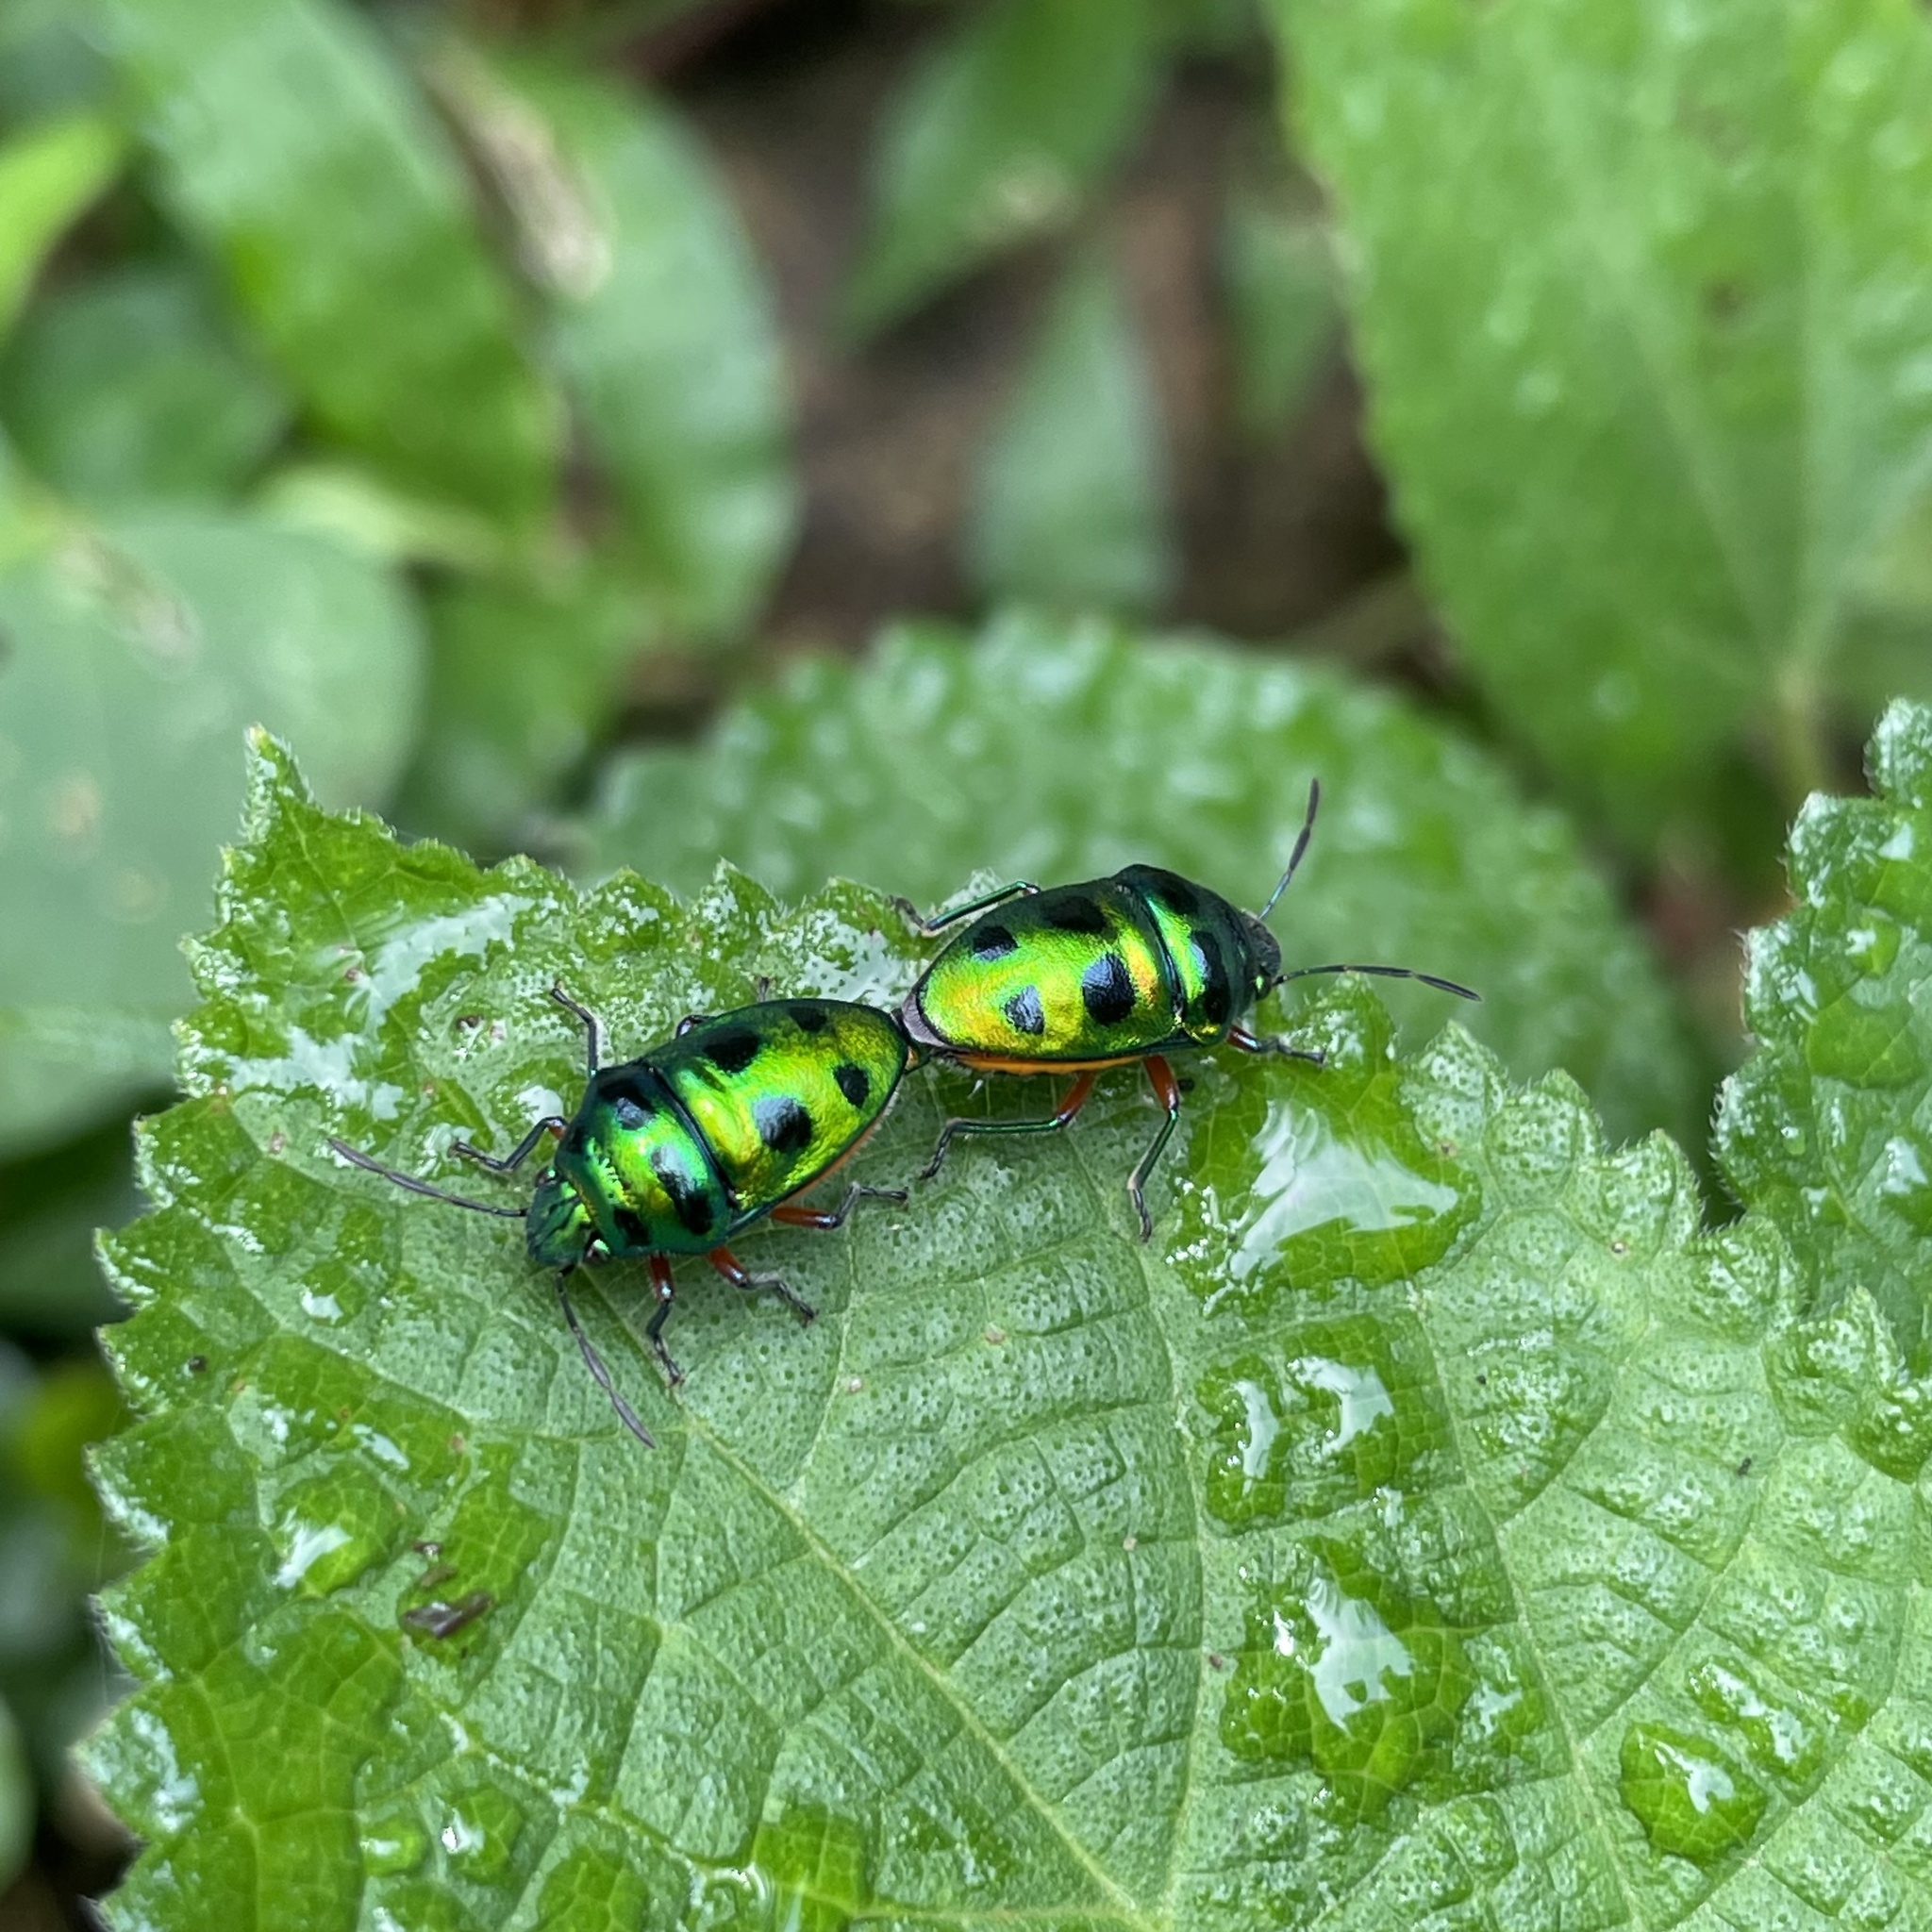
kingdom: Animalia
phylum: Arthropoda
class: Insecta
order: Hemiptera
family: Scutelleridae
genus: Lampromicra
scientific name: Lampromicra miyakona
